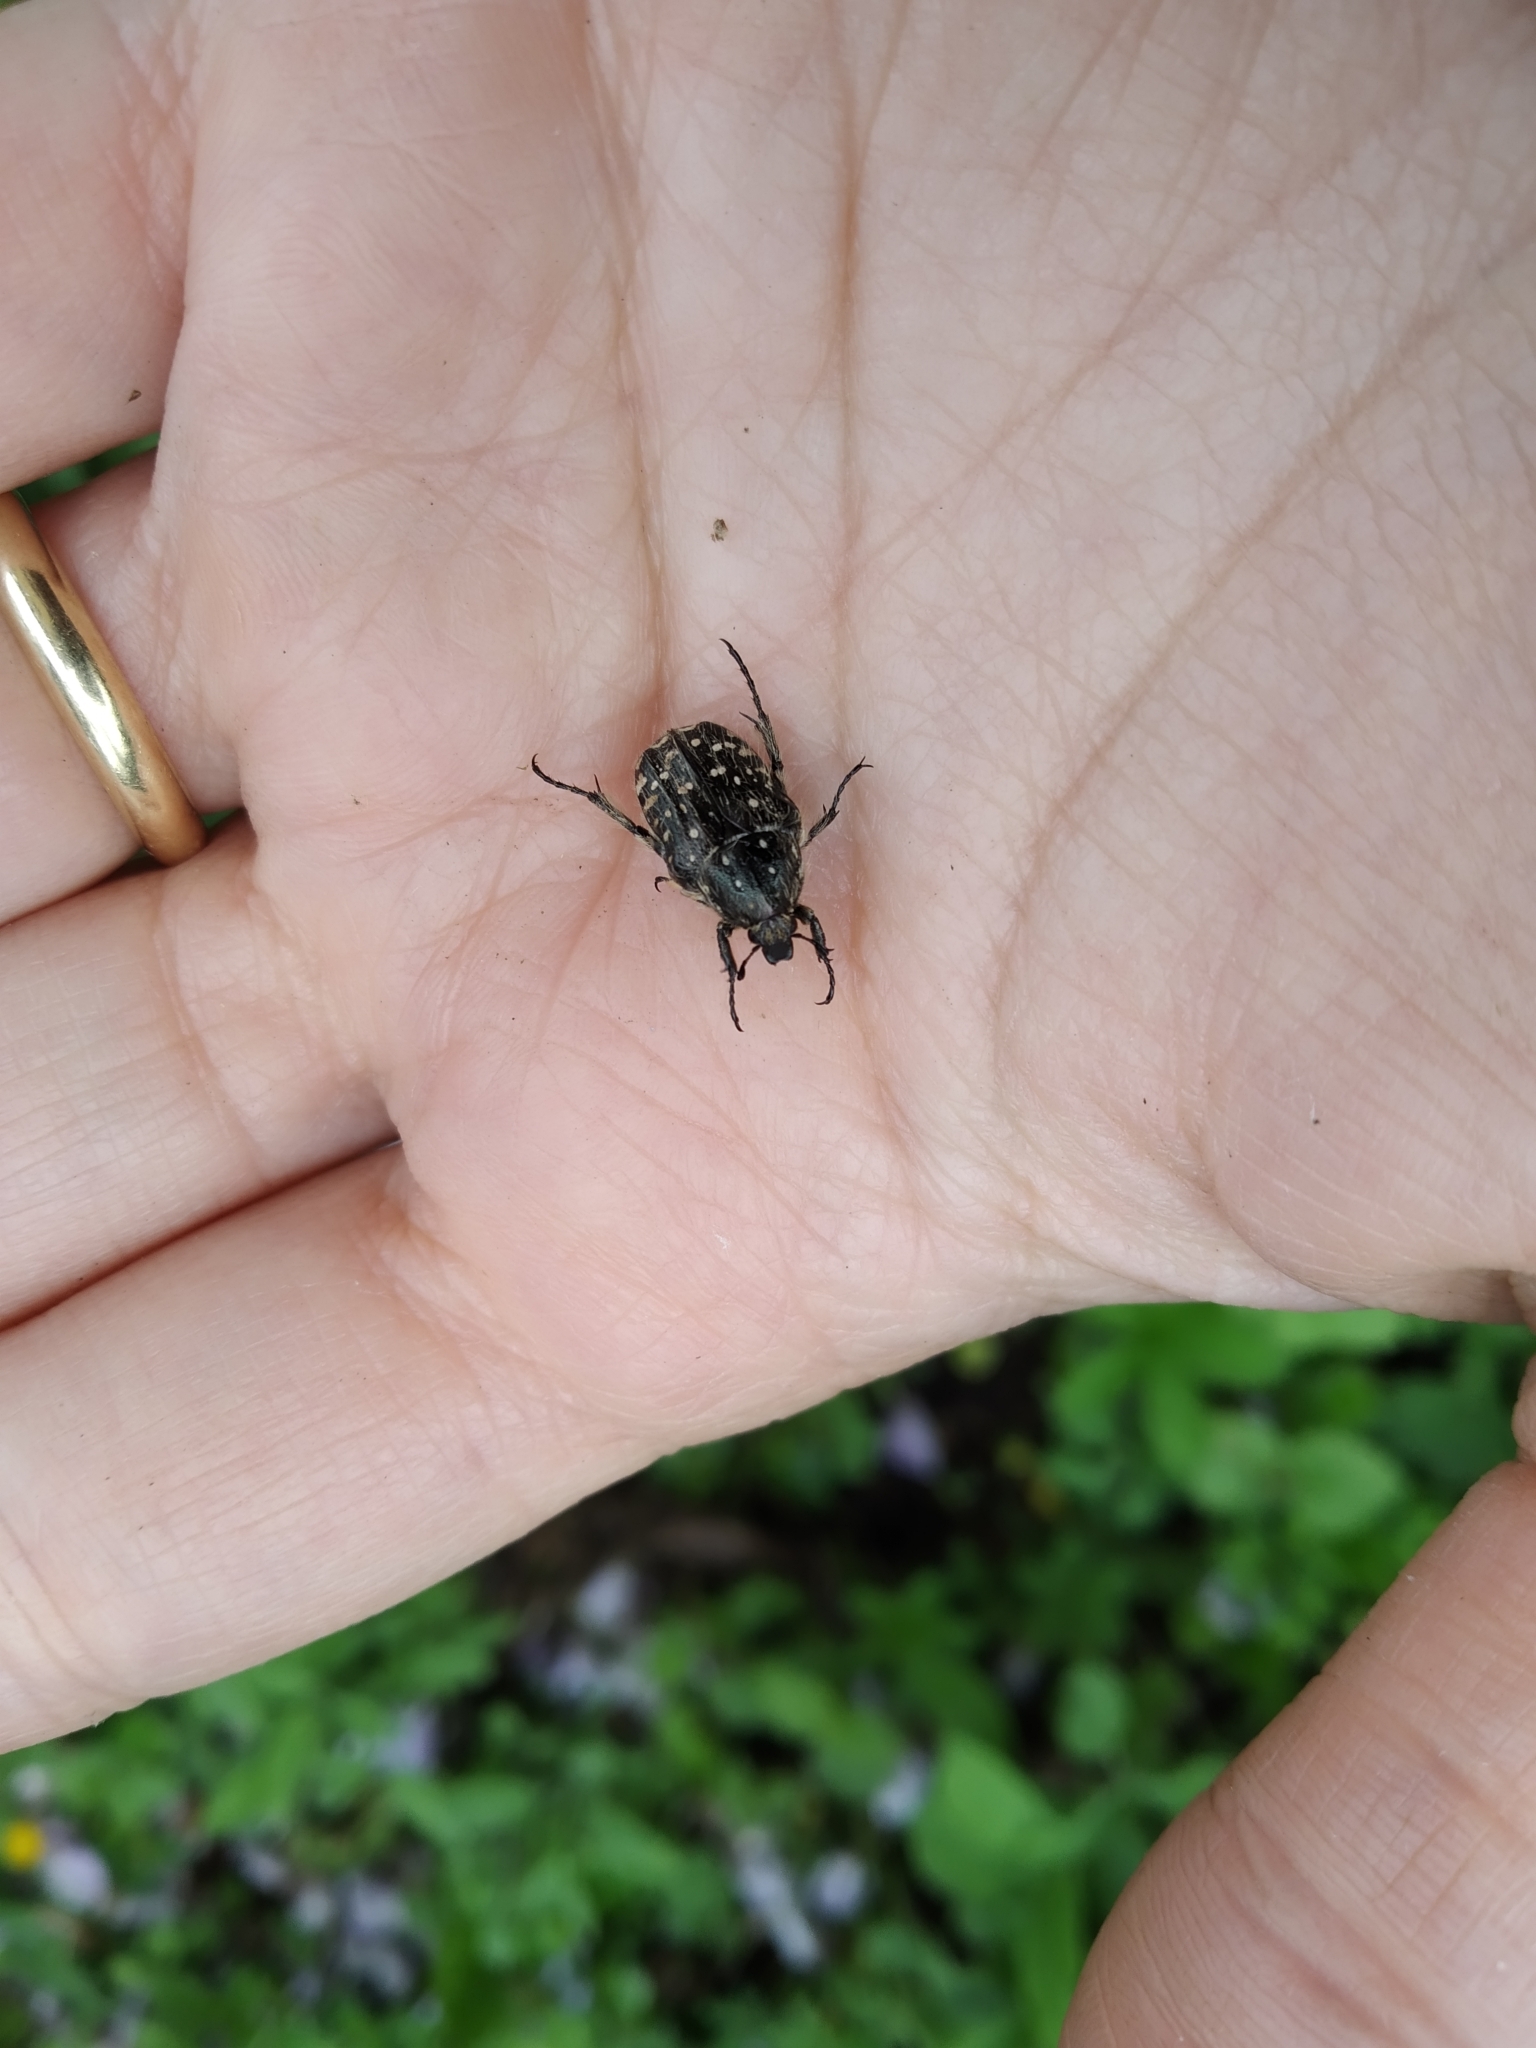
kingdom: Animalia
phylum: Arthropoda
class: Insecta
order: Coleoptera
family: Scarabaeidae
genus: Oxythyrea
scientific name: Oxythyrea funesta
